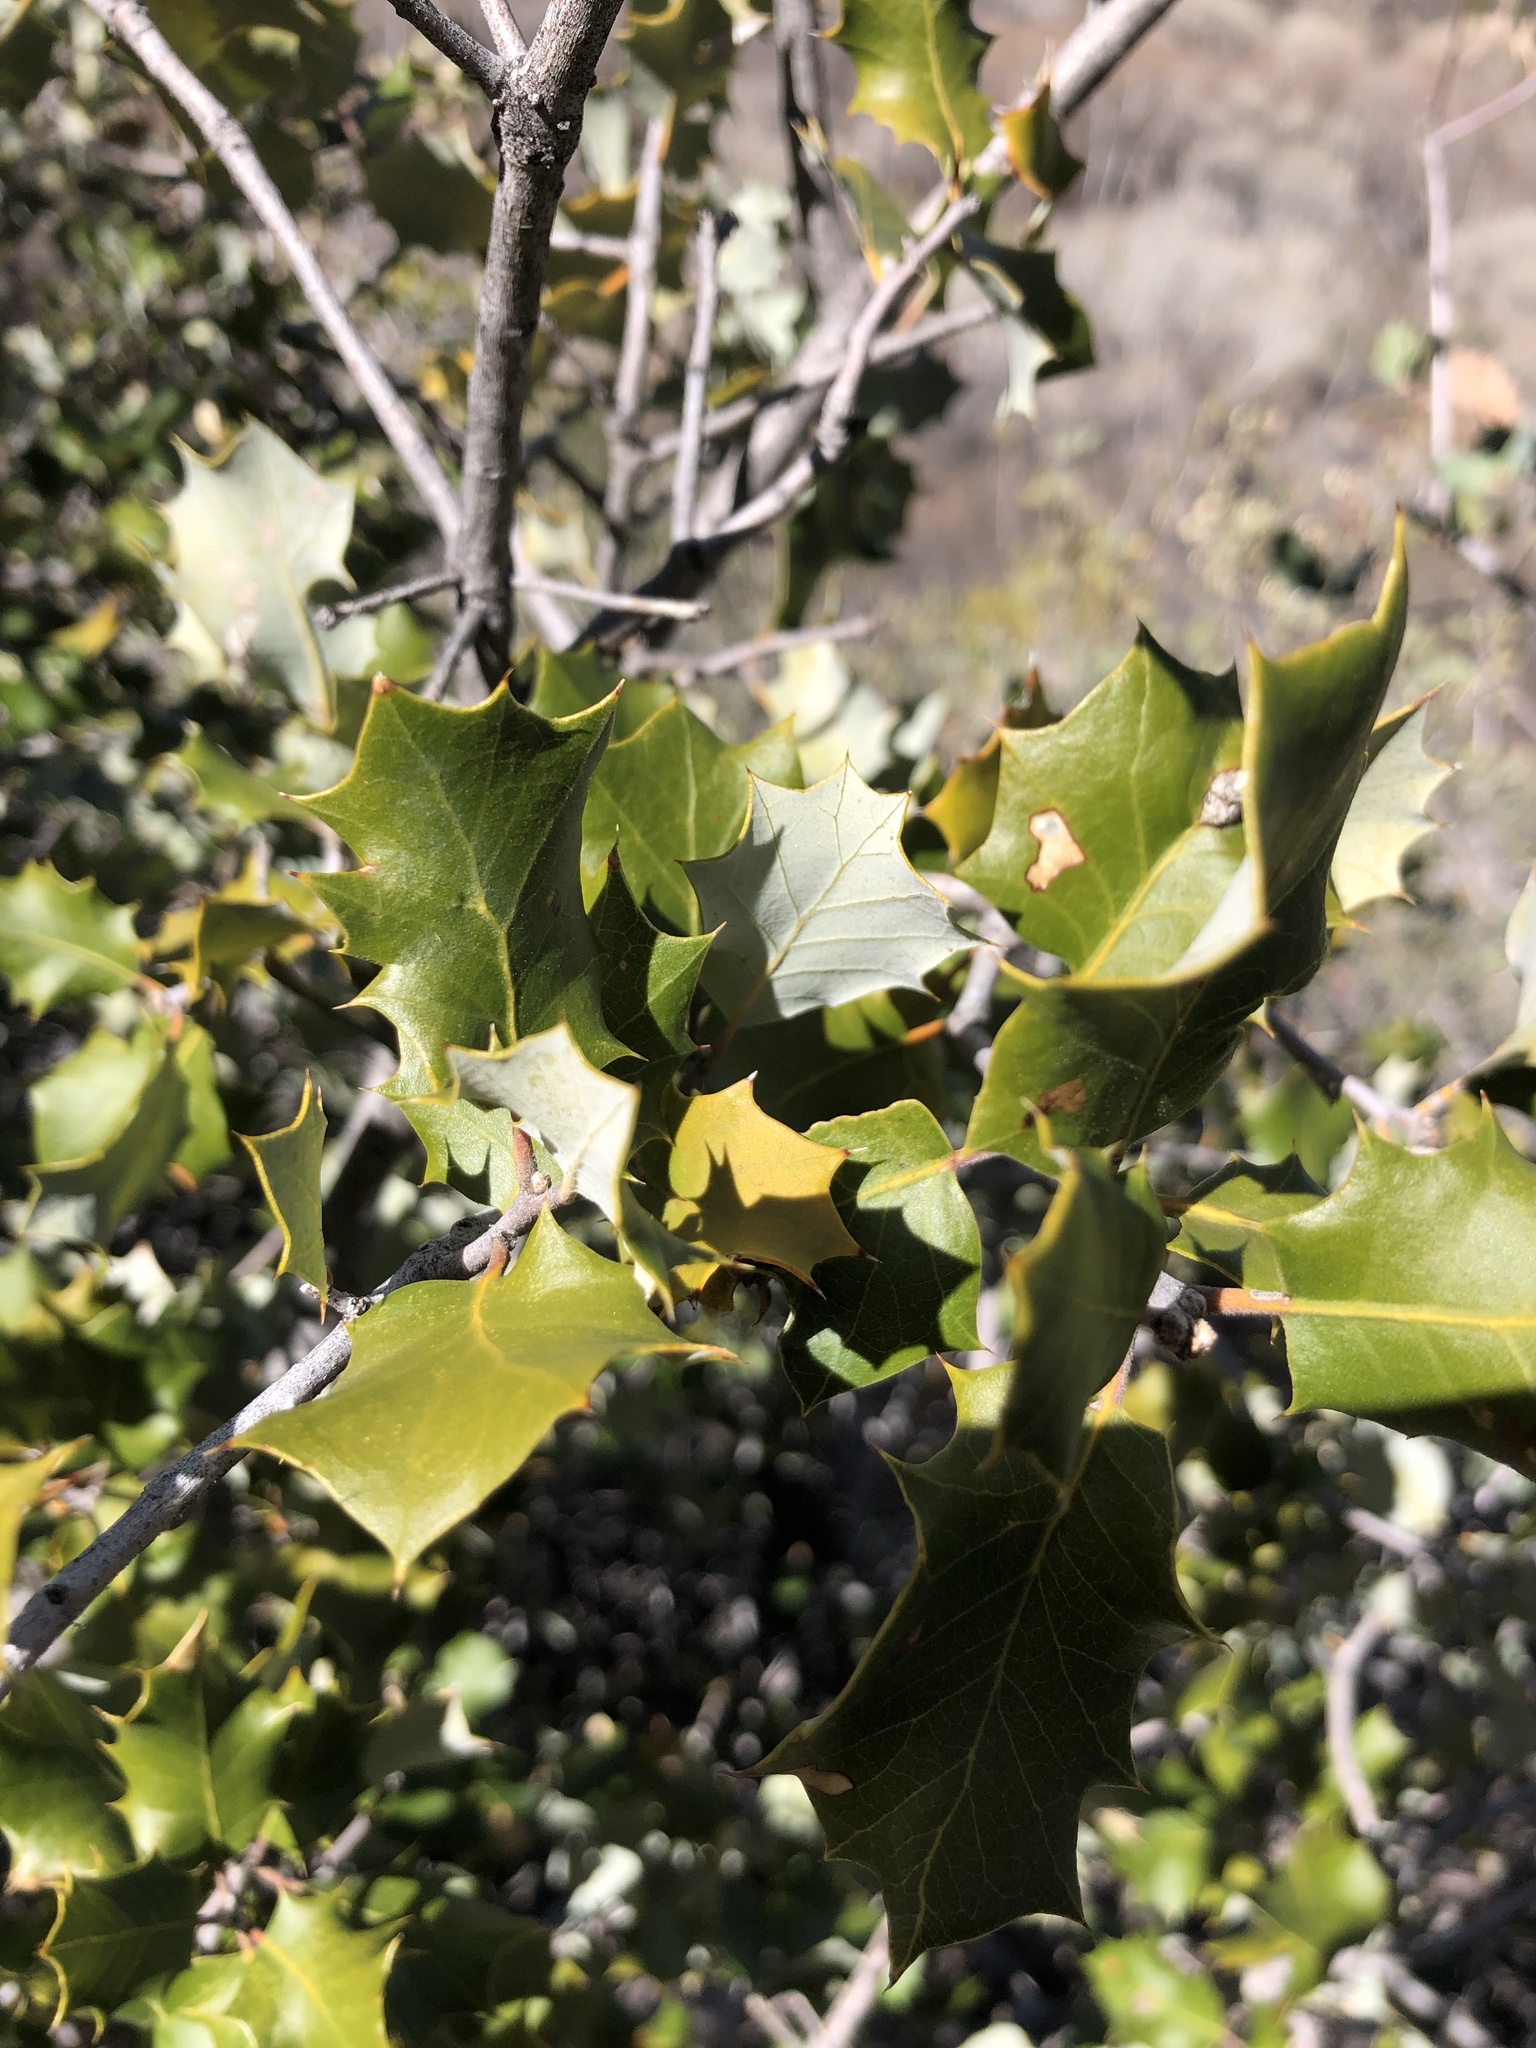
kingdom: Plantae
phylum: Tracheophyta
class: Magnoliopsida
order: Fagales
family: Fagaceae
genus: Quercus
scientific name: Quercus palmeri
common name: Dunn oak
